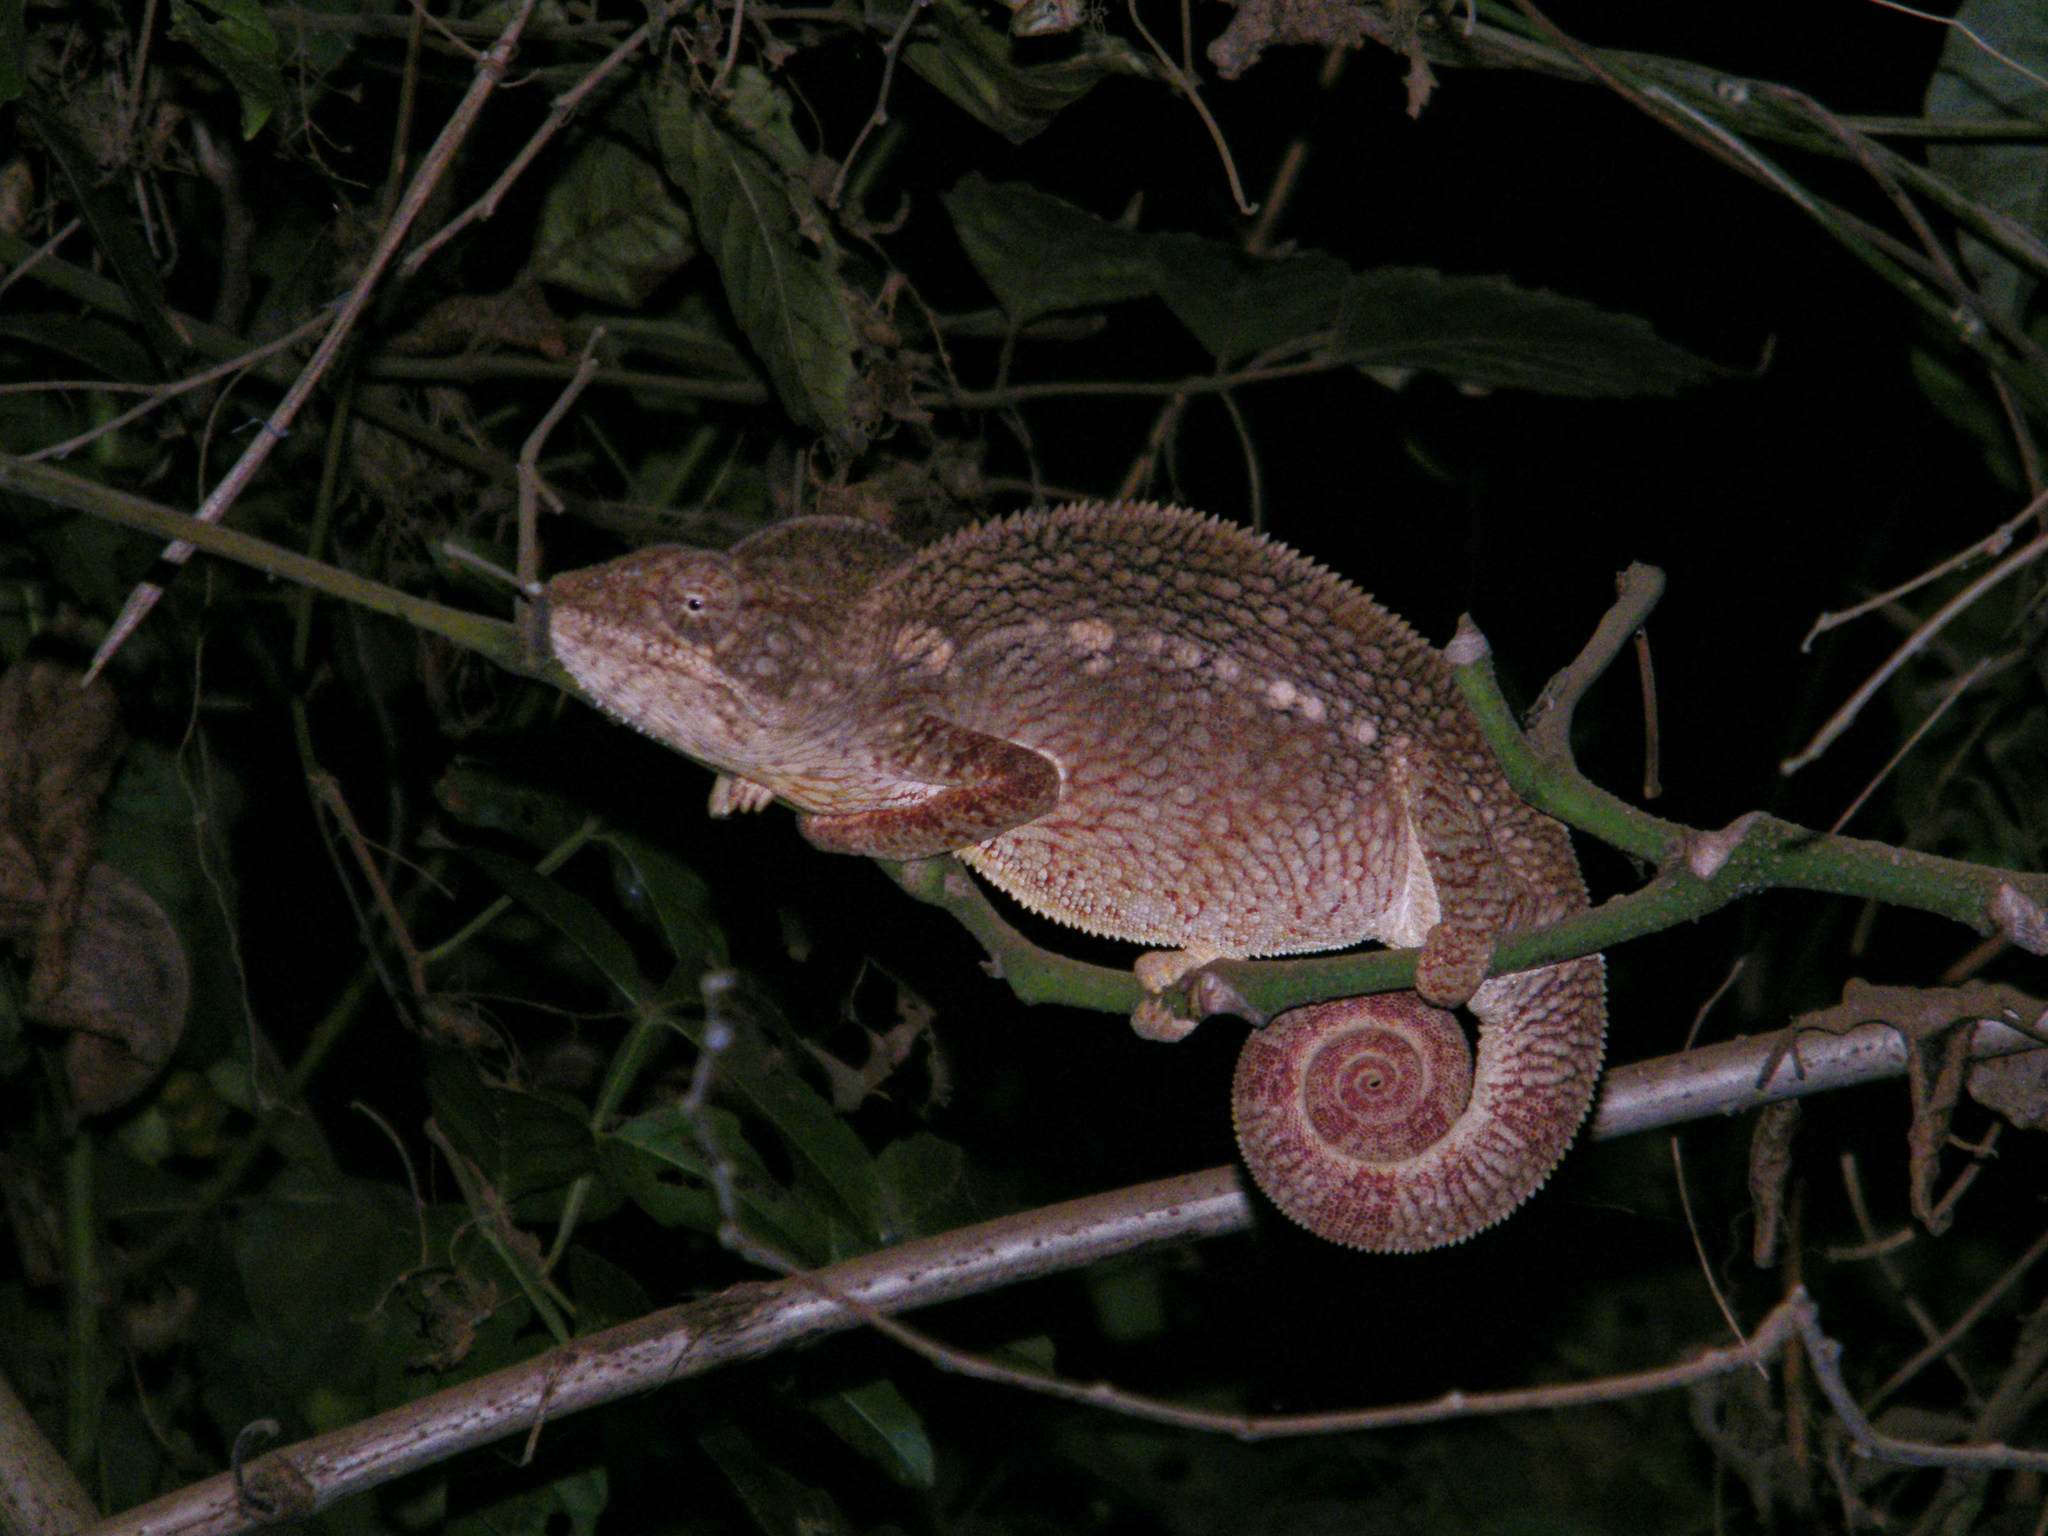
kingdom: Animalia
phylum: Chordata
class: Squamata
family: Chamaeleonidae
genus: Furcifer
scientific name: Furcifer oustaleti
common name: Oustalet's chameleon
